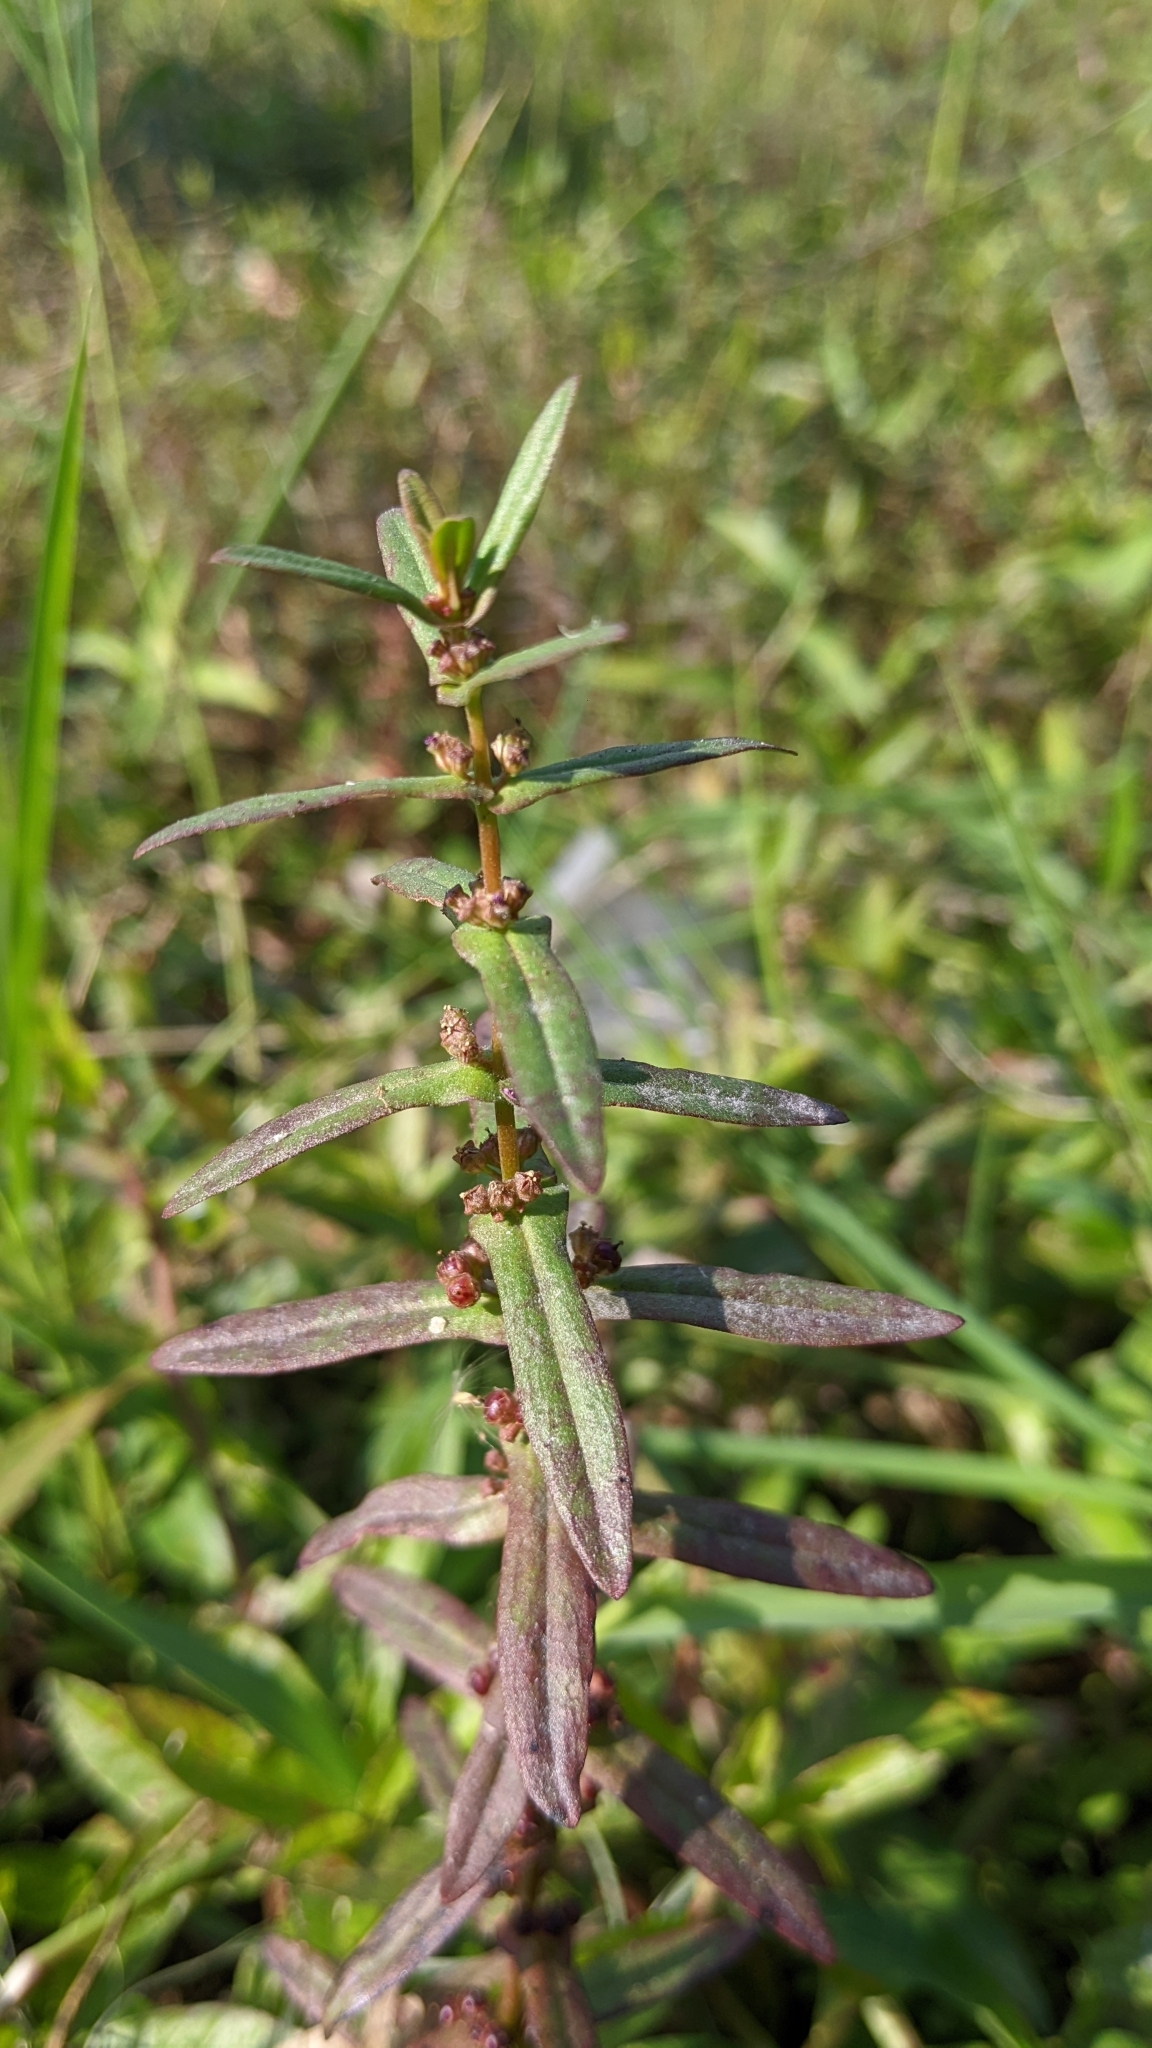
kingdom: Plantae
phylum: Tracheophyta
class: Magnoliopsida
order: Myrtales
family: Lythraceae
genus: Ammannia
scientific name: Ammannia auriculata
